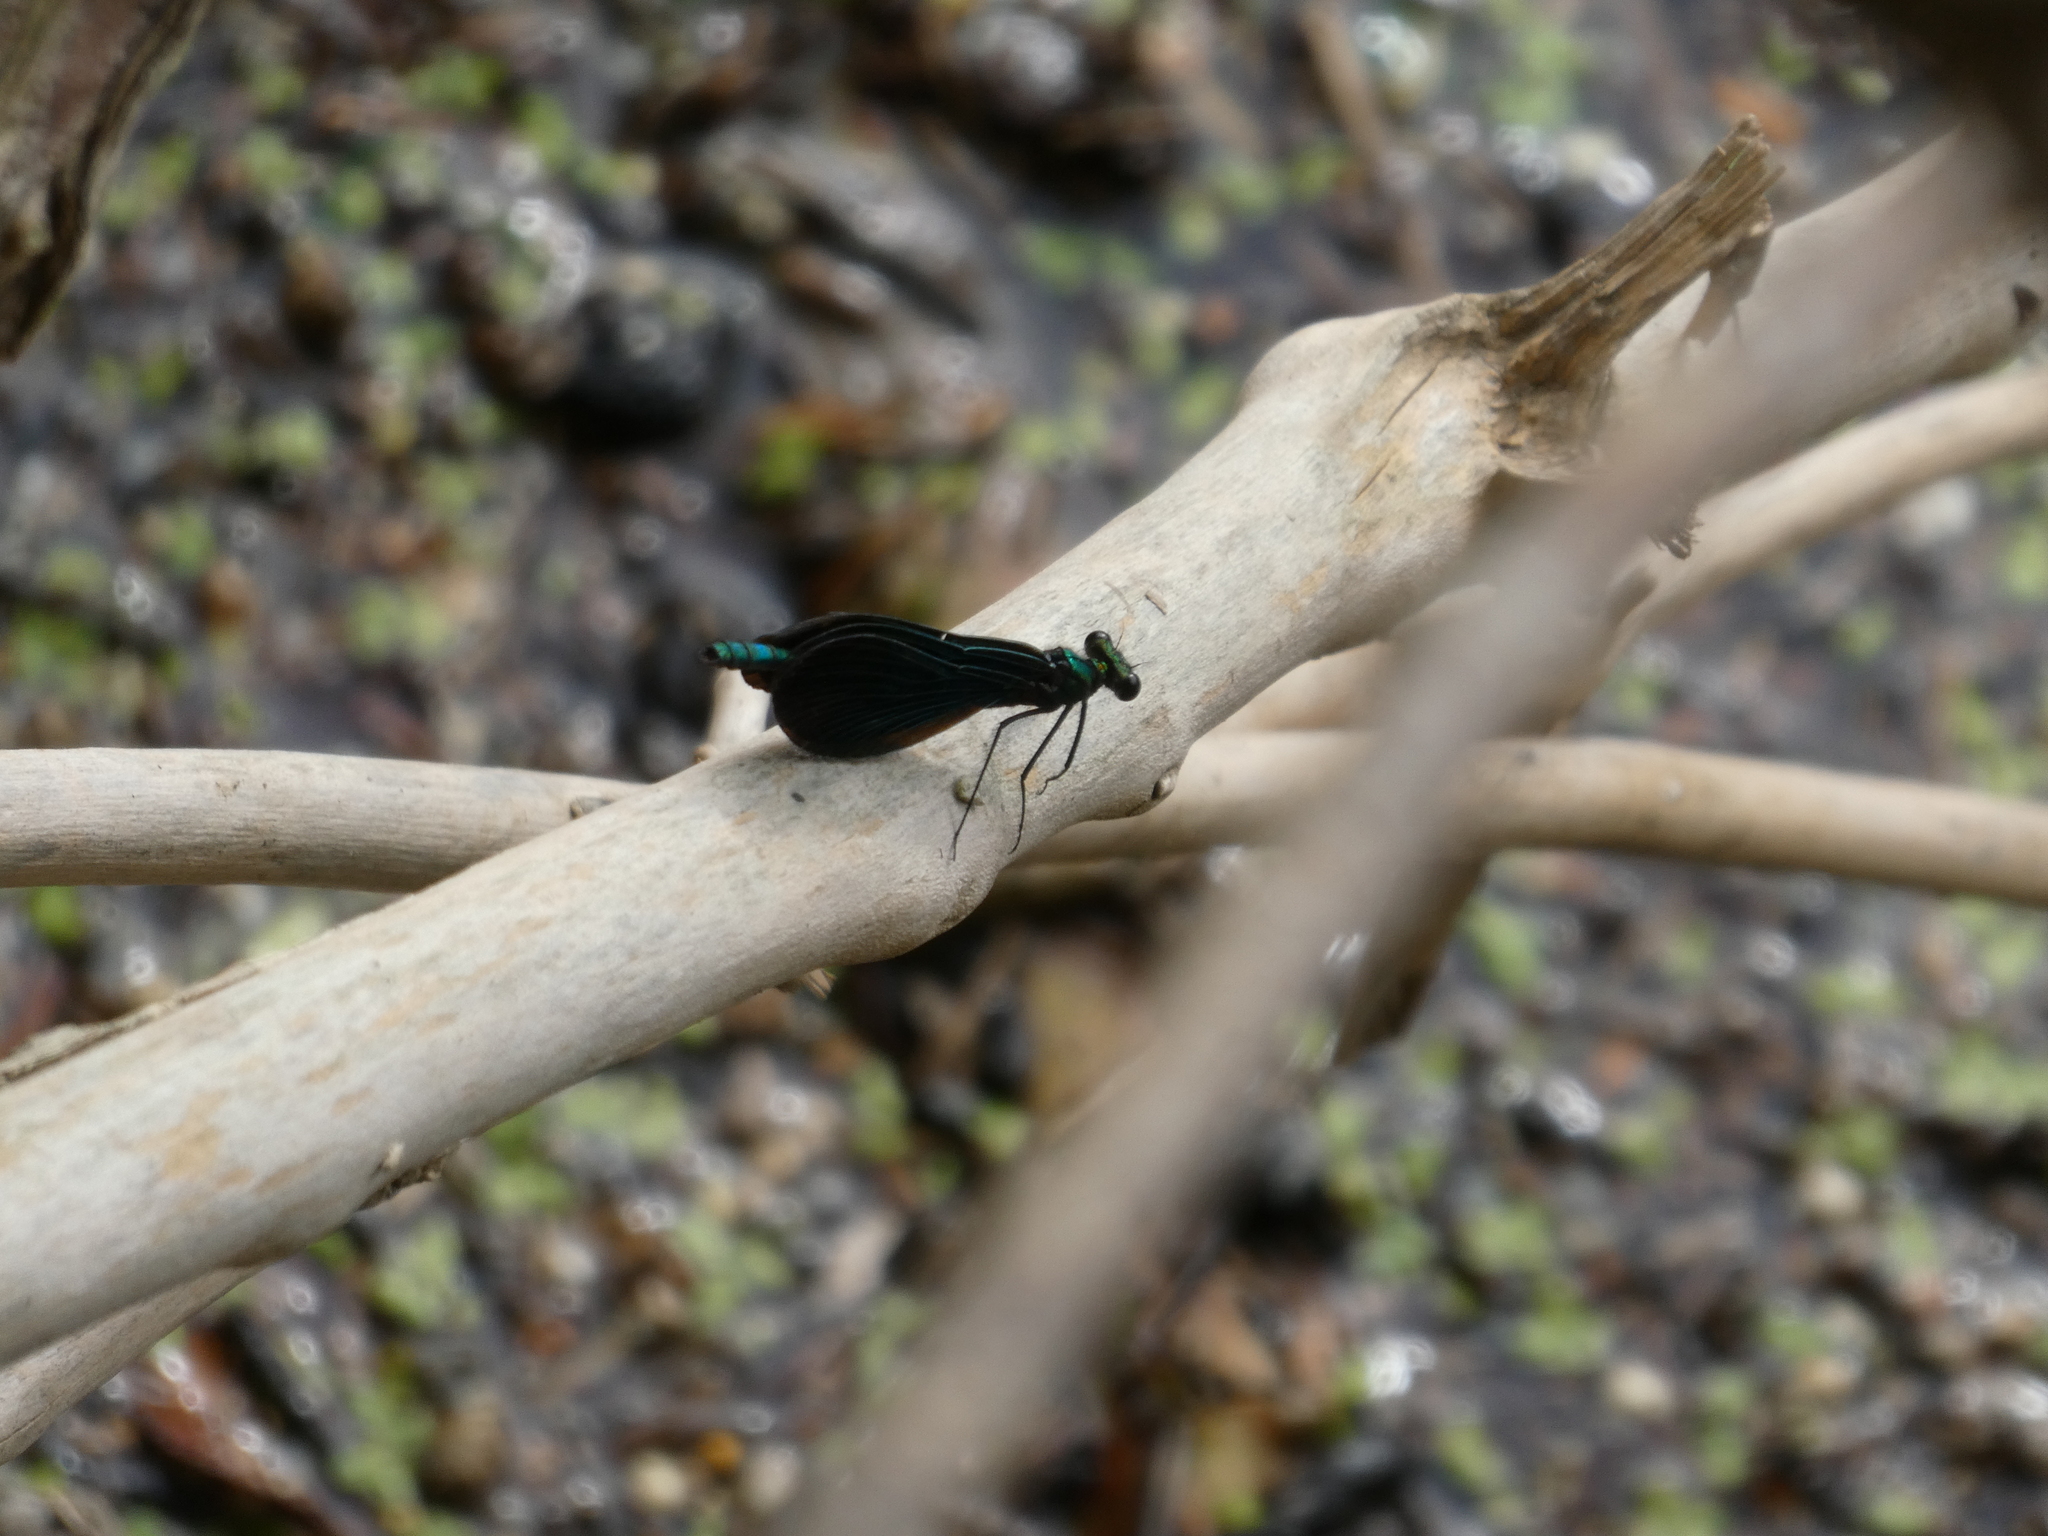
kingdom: Animalia
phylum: Arthropoda
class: Insecta
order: Odonata
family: Calopterygidae
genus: Calopteryx
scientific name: Calopteryx virgo
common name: Beautiful demoiselle
